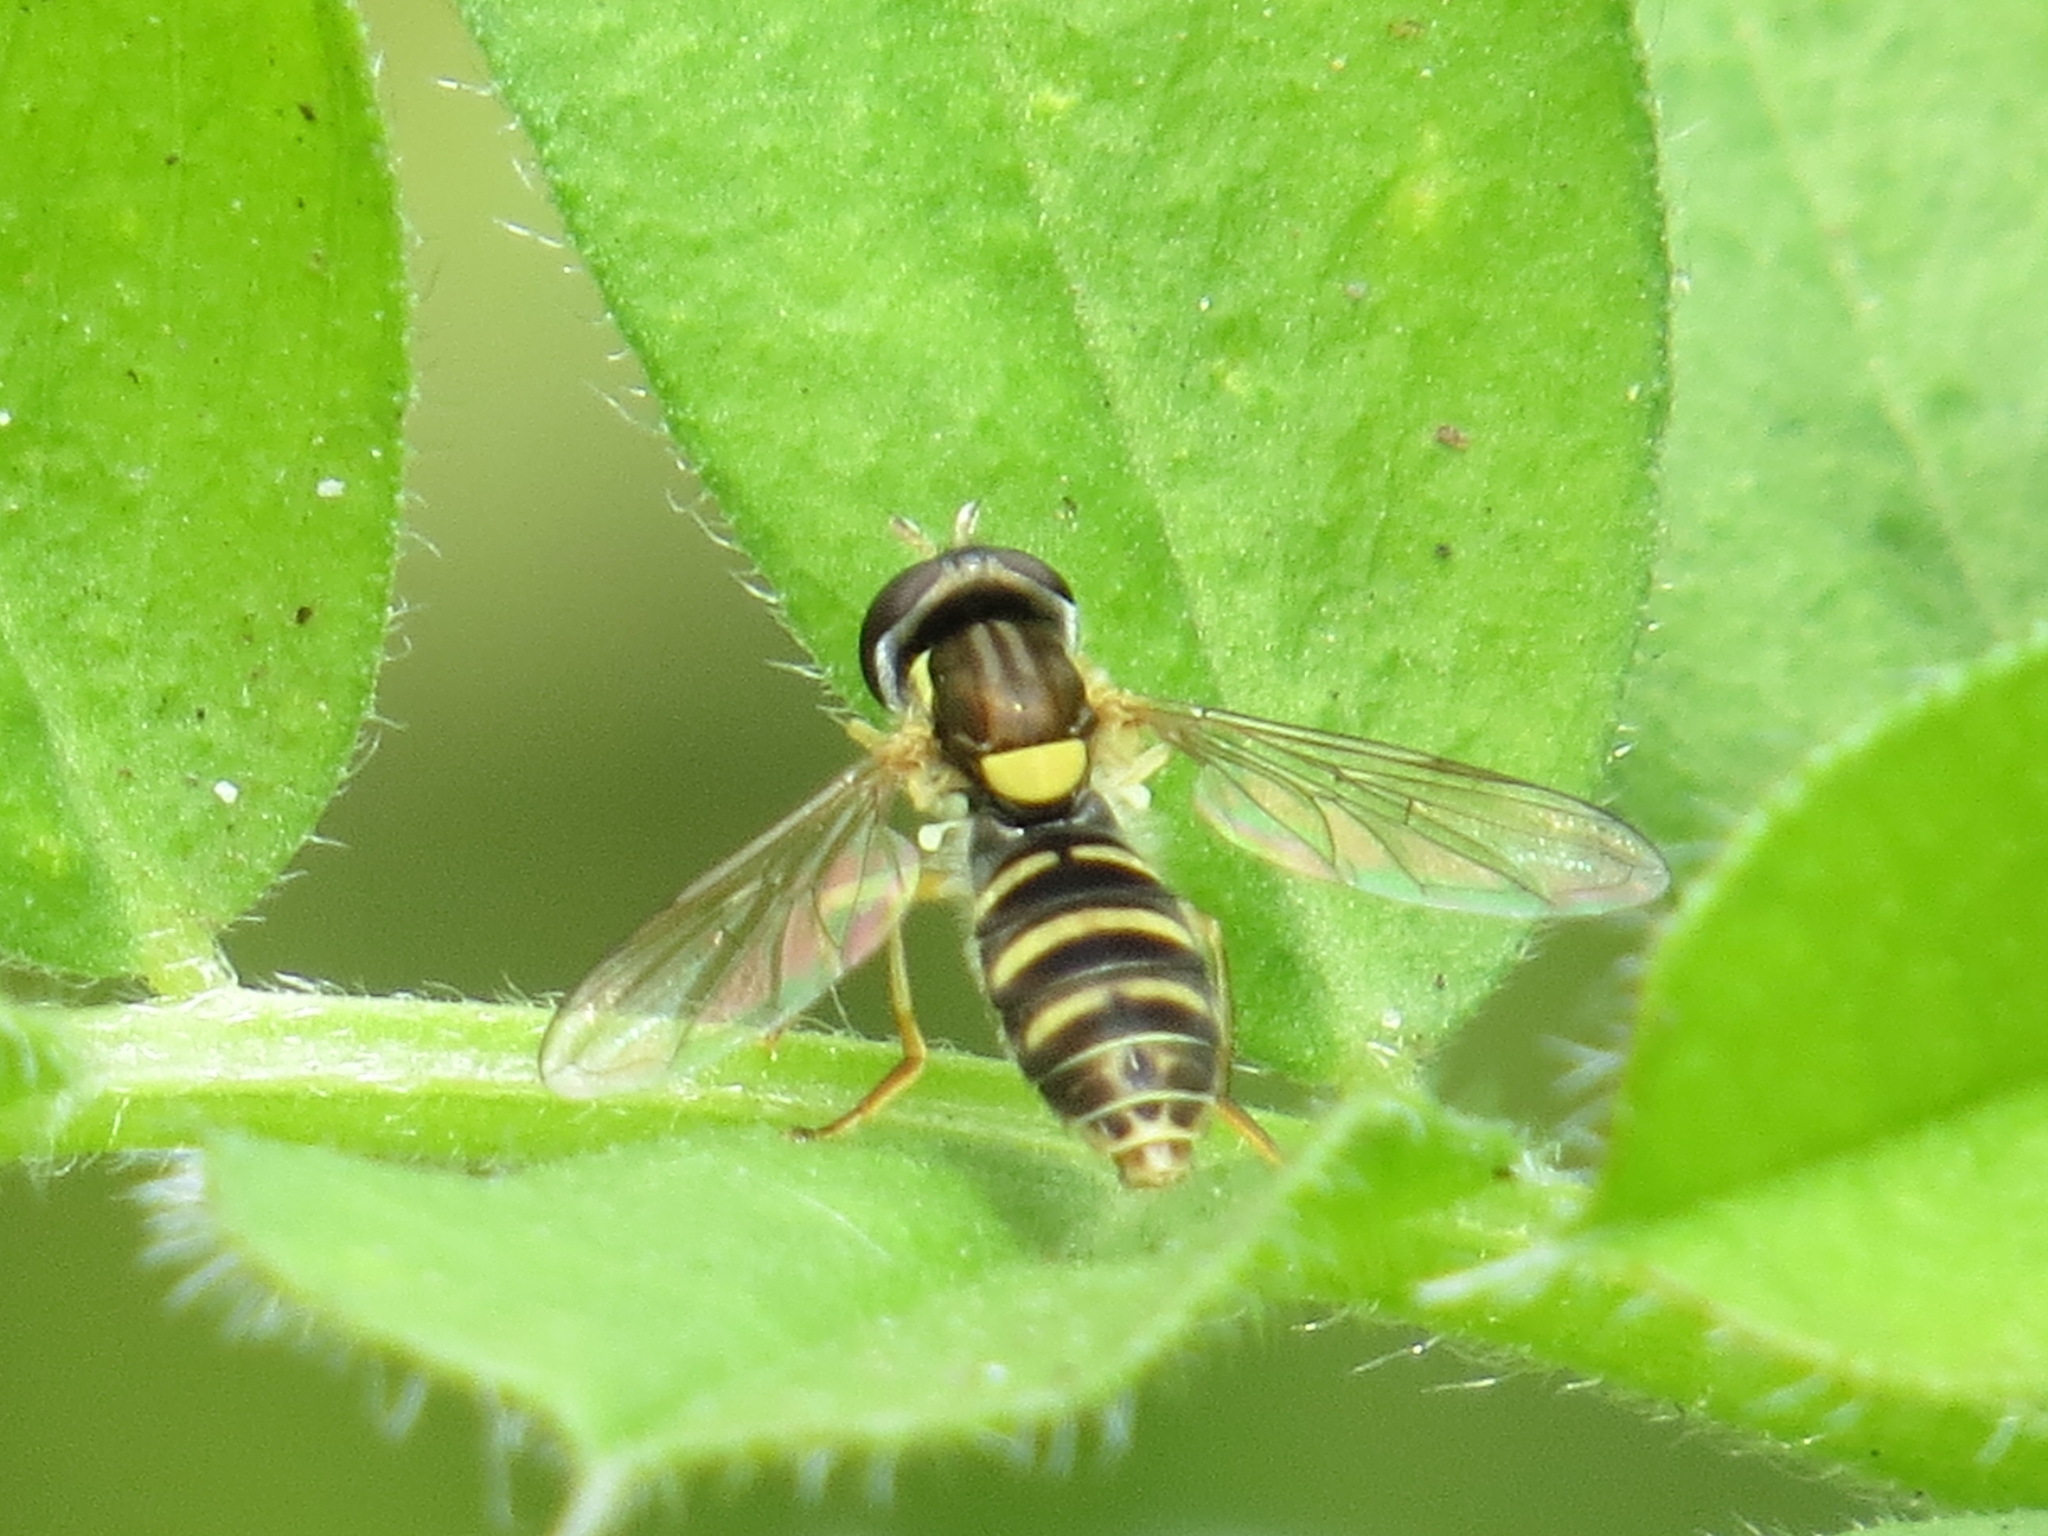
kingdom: Animalia
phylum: Arthropoda
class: Insecta
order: Diptera
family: Syrphidae
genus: Sphaerophoria
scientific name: Sphaerophoria sulphuripes
